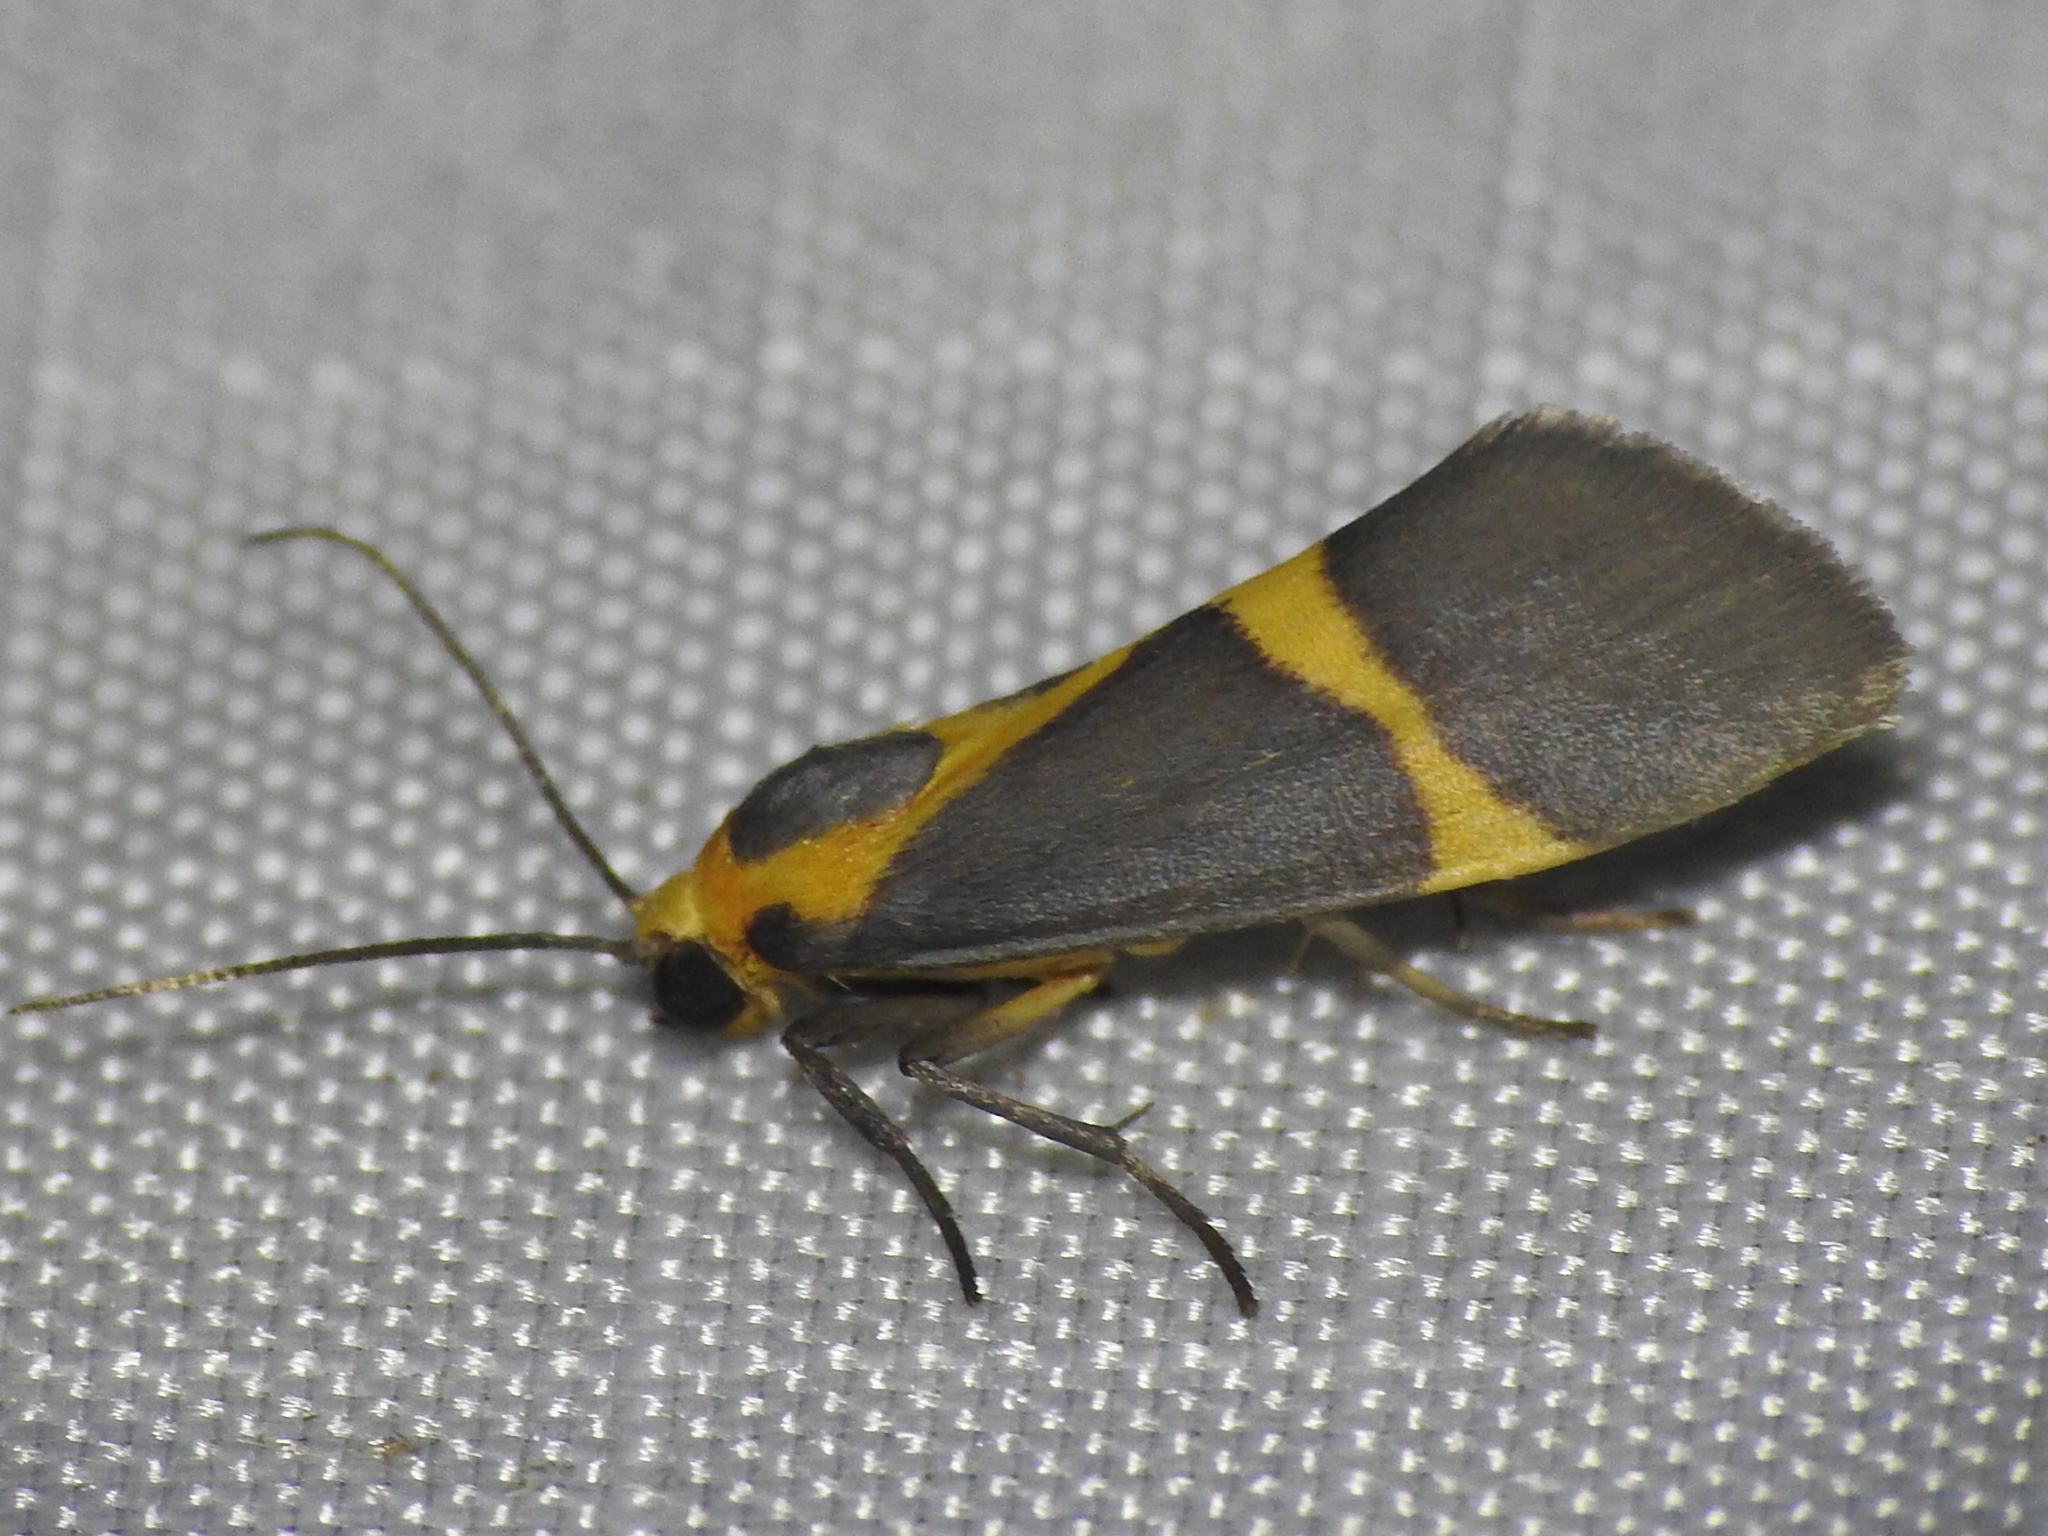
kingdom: Animalia
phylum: Arthropoda
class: Insecta
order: Lepidoptera
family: Erebidae
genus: Cisthene
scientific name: Cisthene tenuifascia
